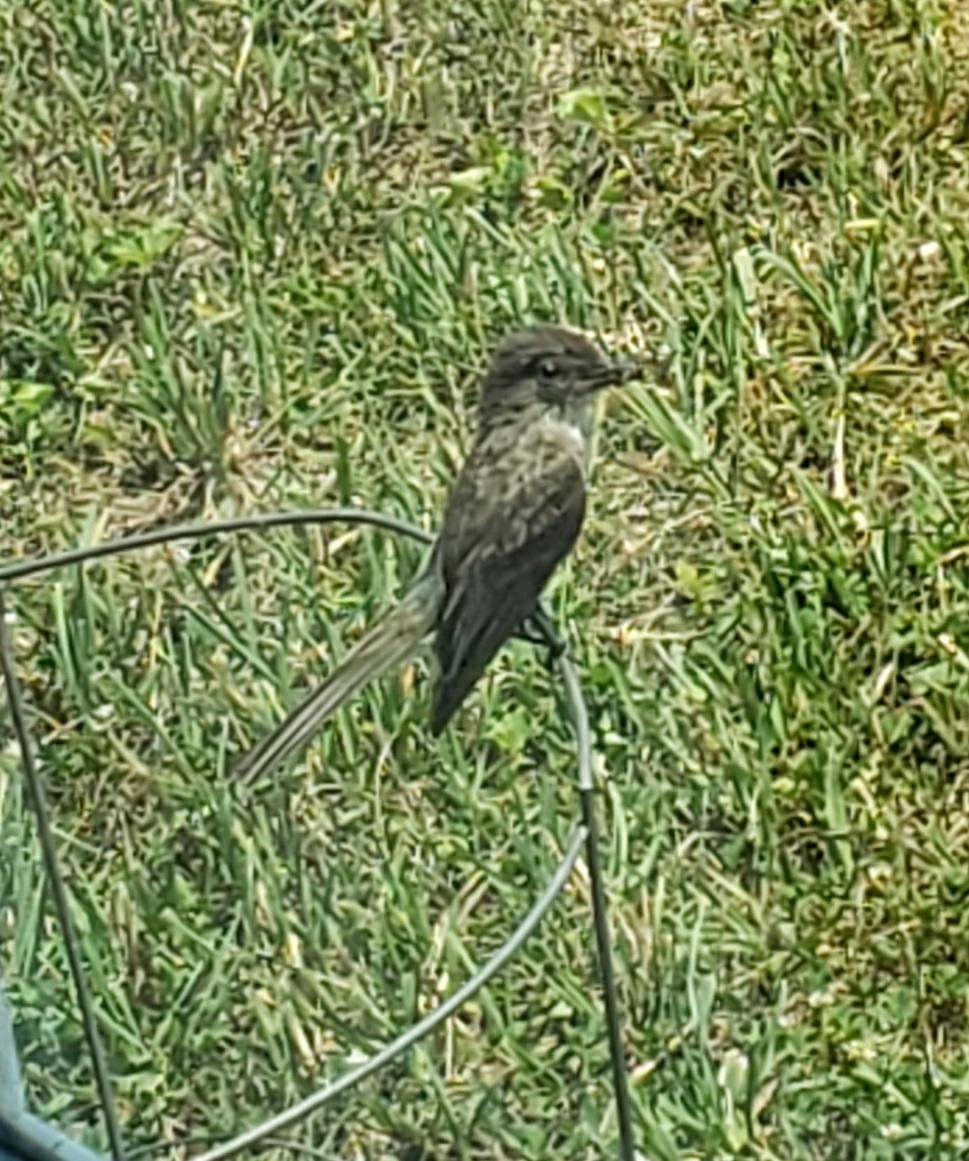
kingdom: Animalia
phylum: Chordata
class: Aves
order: Passeriformes
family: Tyrannidae
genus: Sayornis
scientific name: Sayornis phoebe
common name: Eastern phoebe
